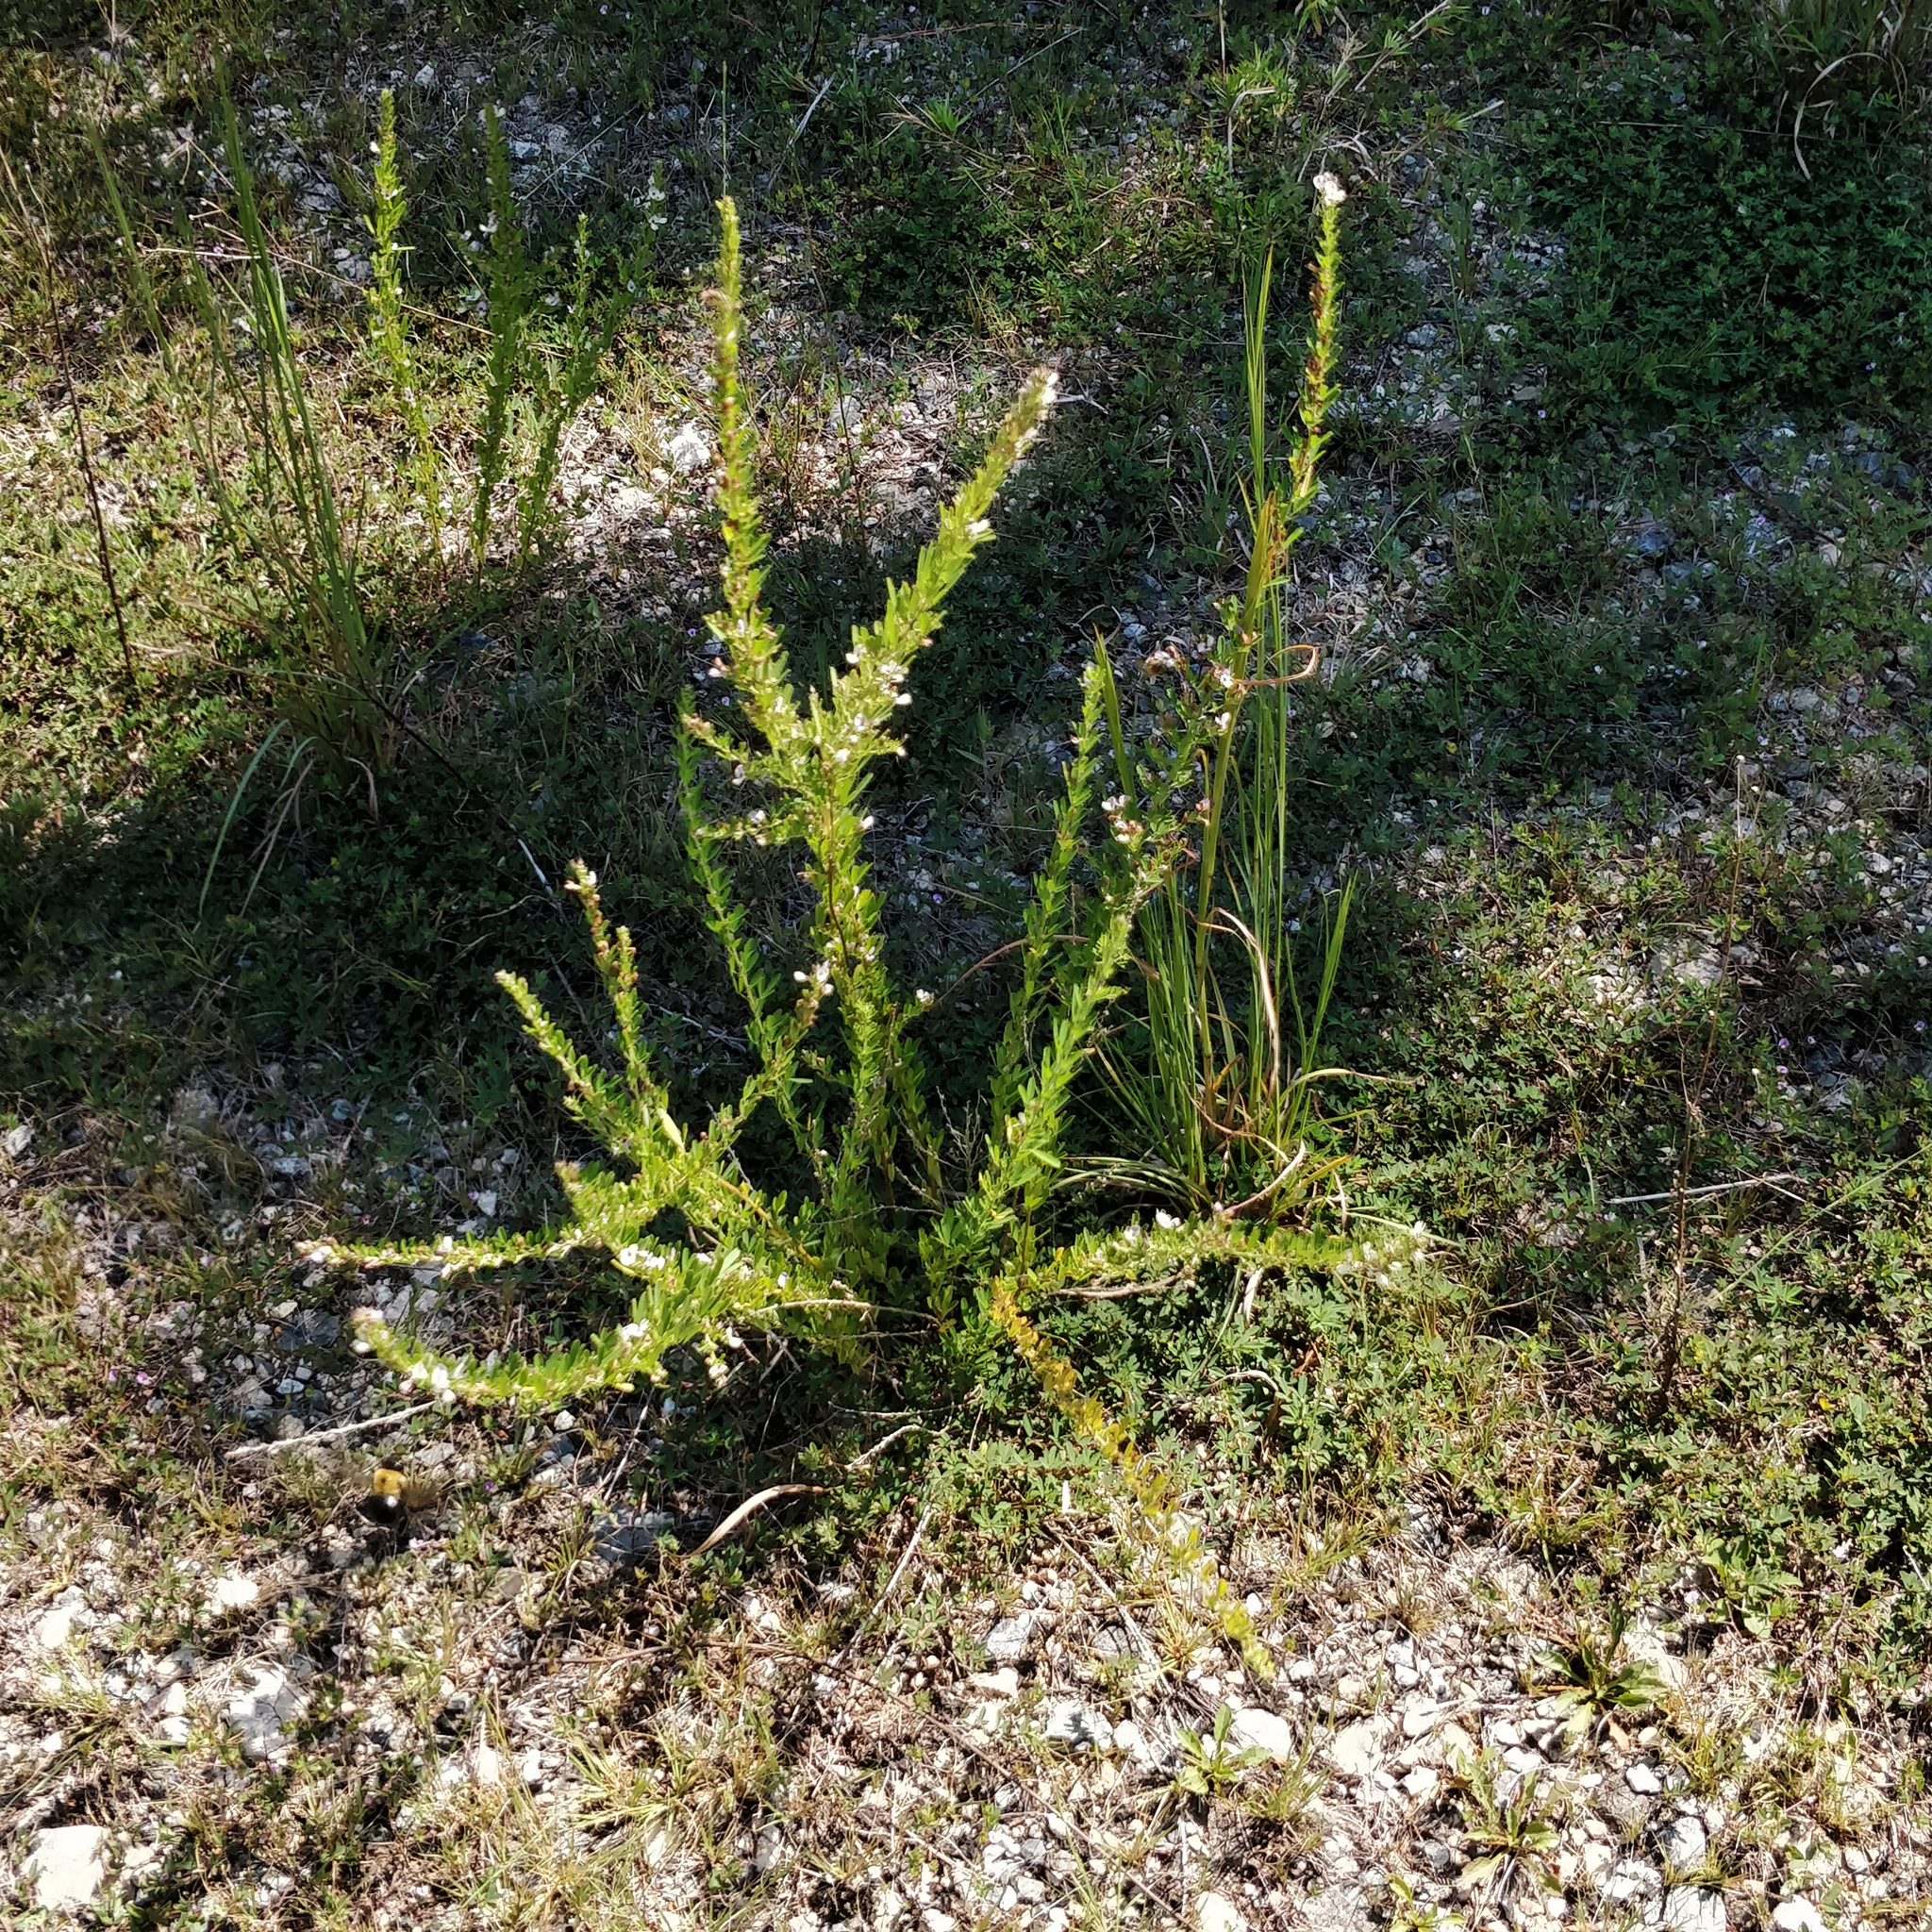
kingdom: Plantae
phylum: Tracheophyta
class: Magnoliopsida
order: Fabales
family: Fabaceae
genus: Lespedeza
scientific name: Lespedeza cuneata
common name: Chinese bush-clover
